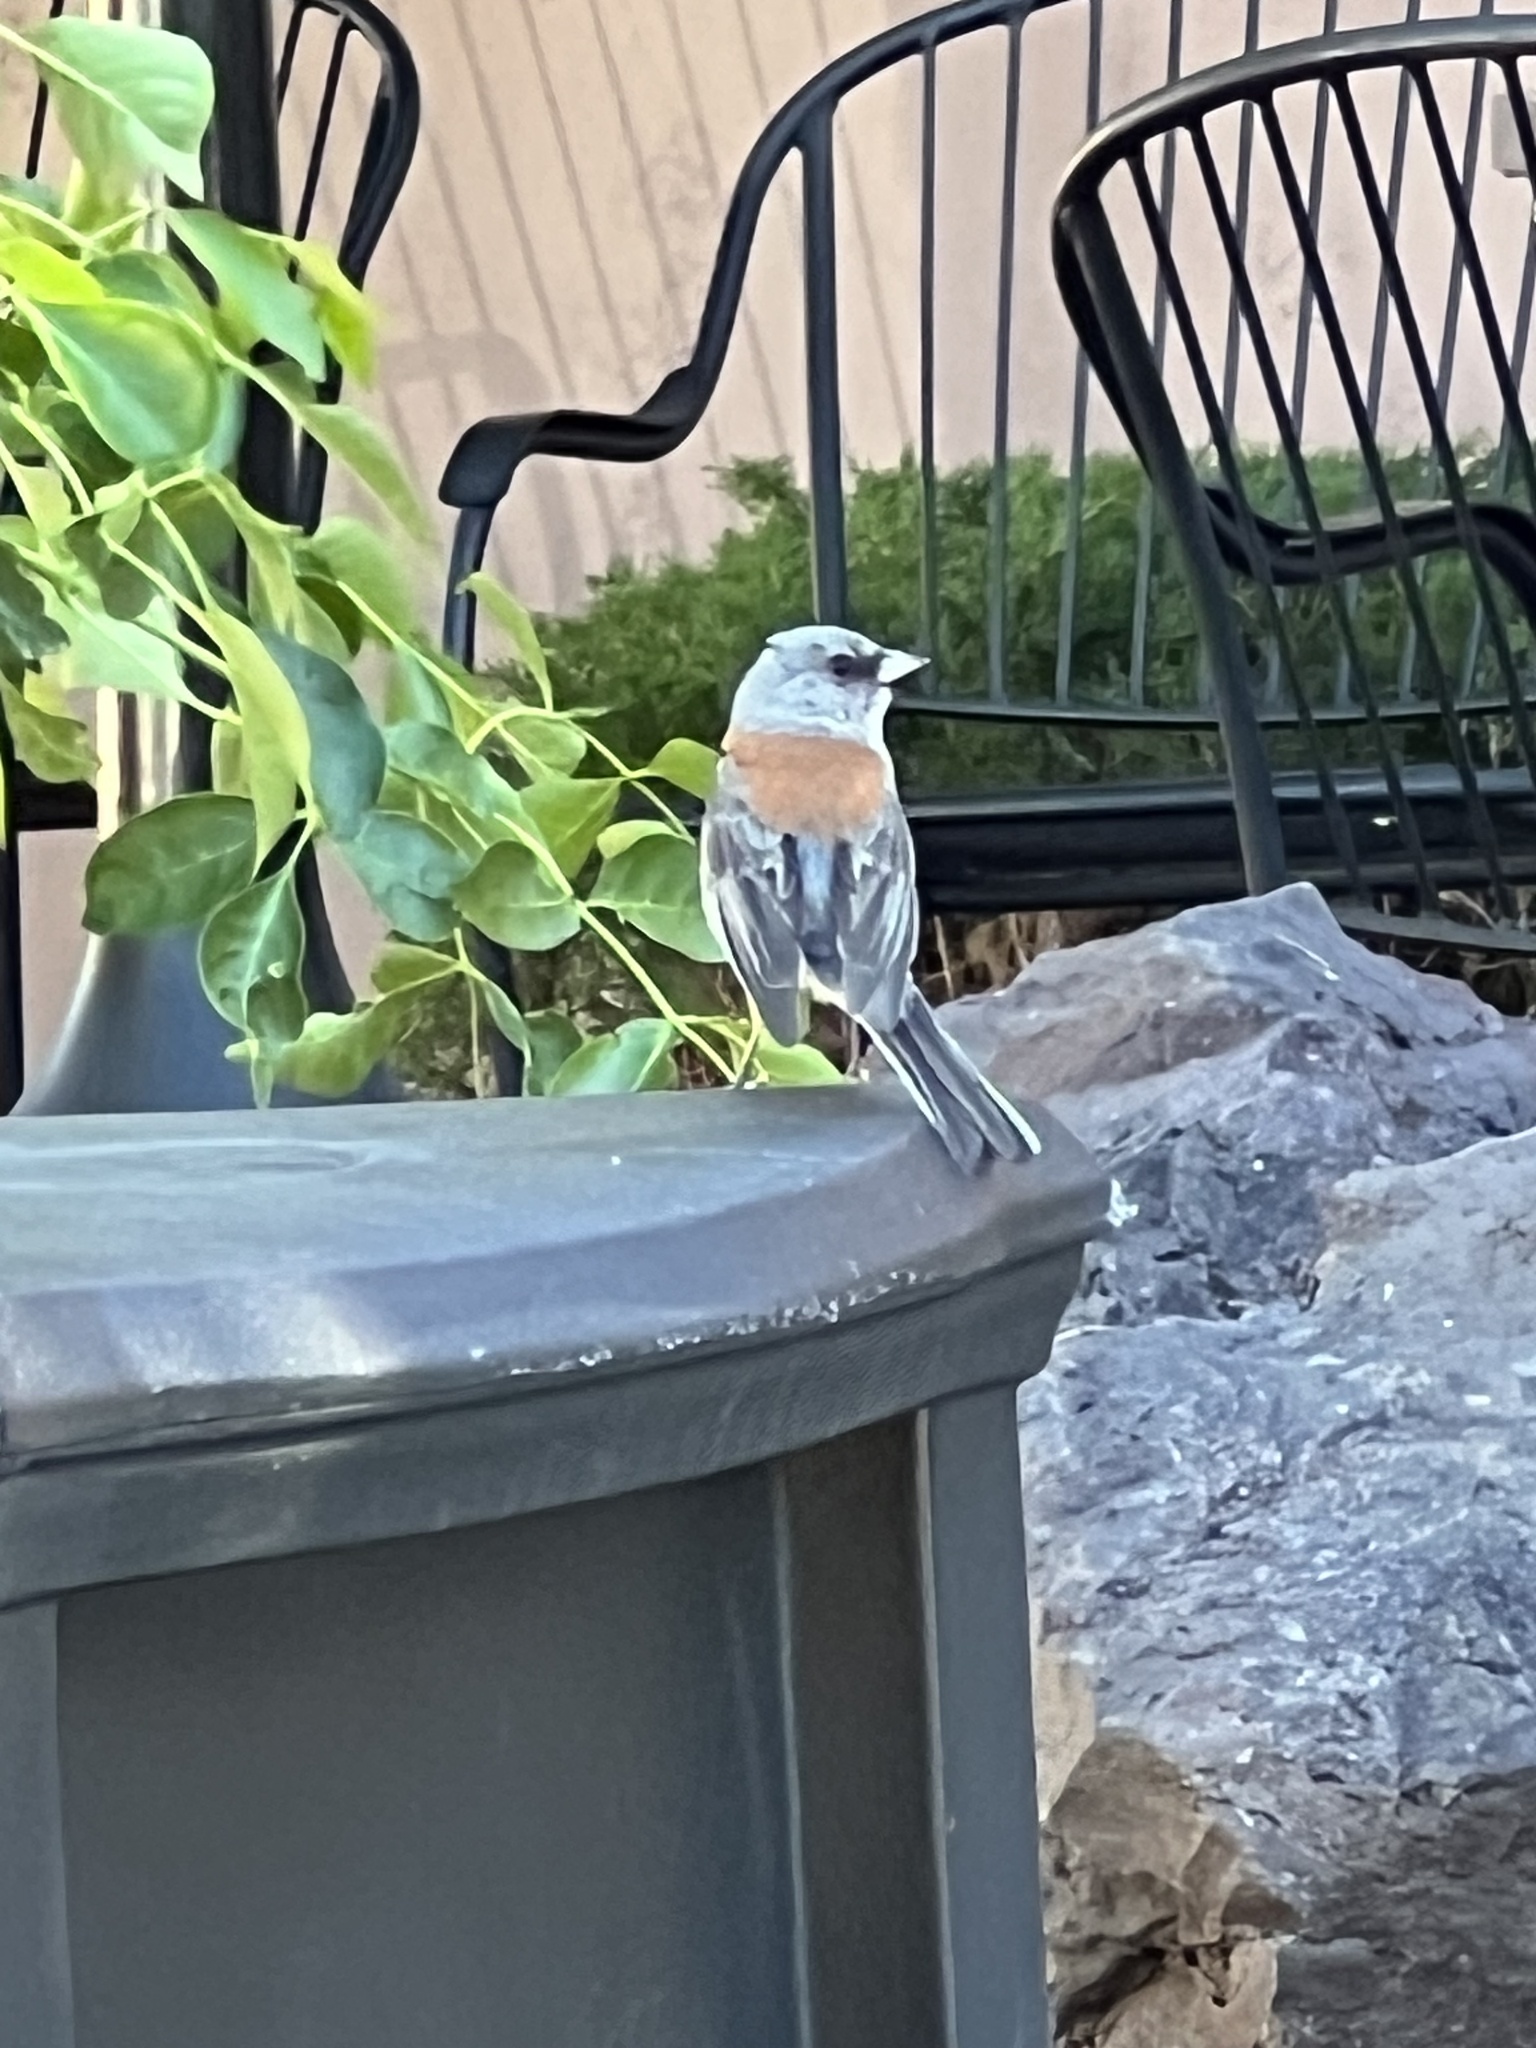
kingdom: Animalia
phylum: Chordata
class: Aves
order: Passeriformes
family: Passerellidae
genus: Junco
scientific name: Junco hyemalis
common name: Dark-eyed junco
